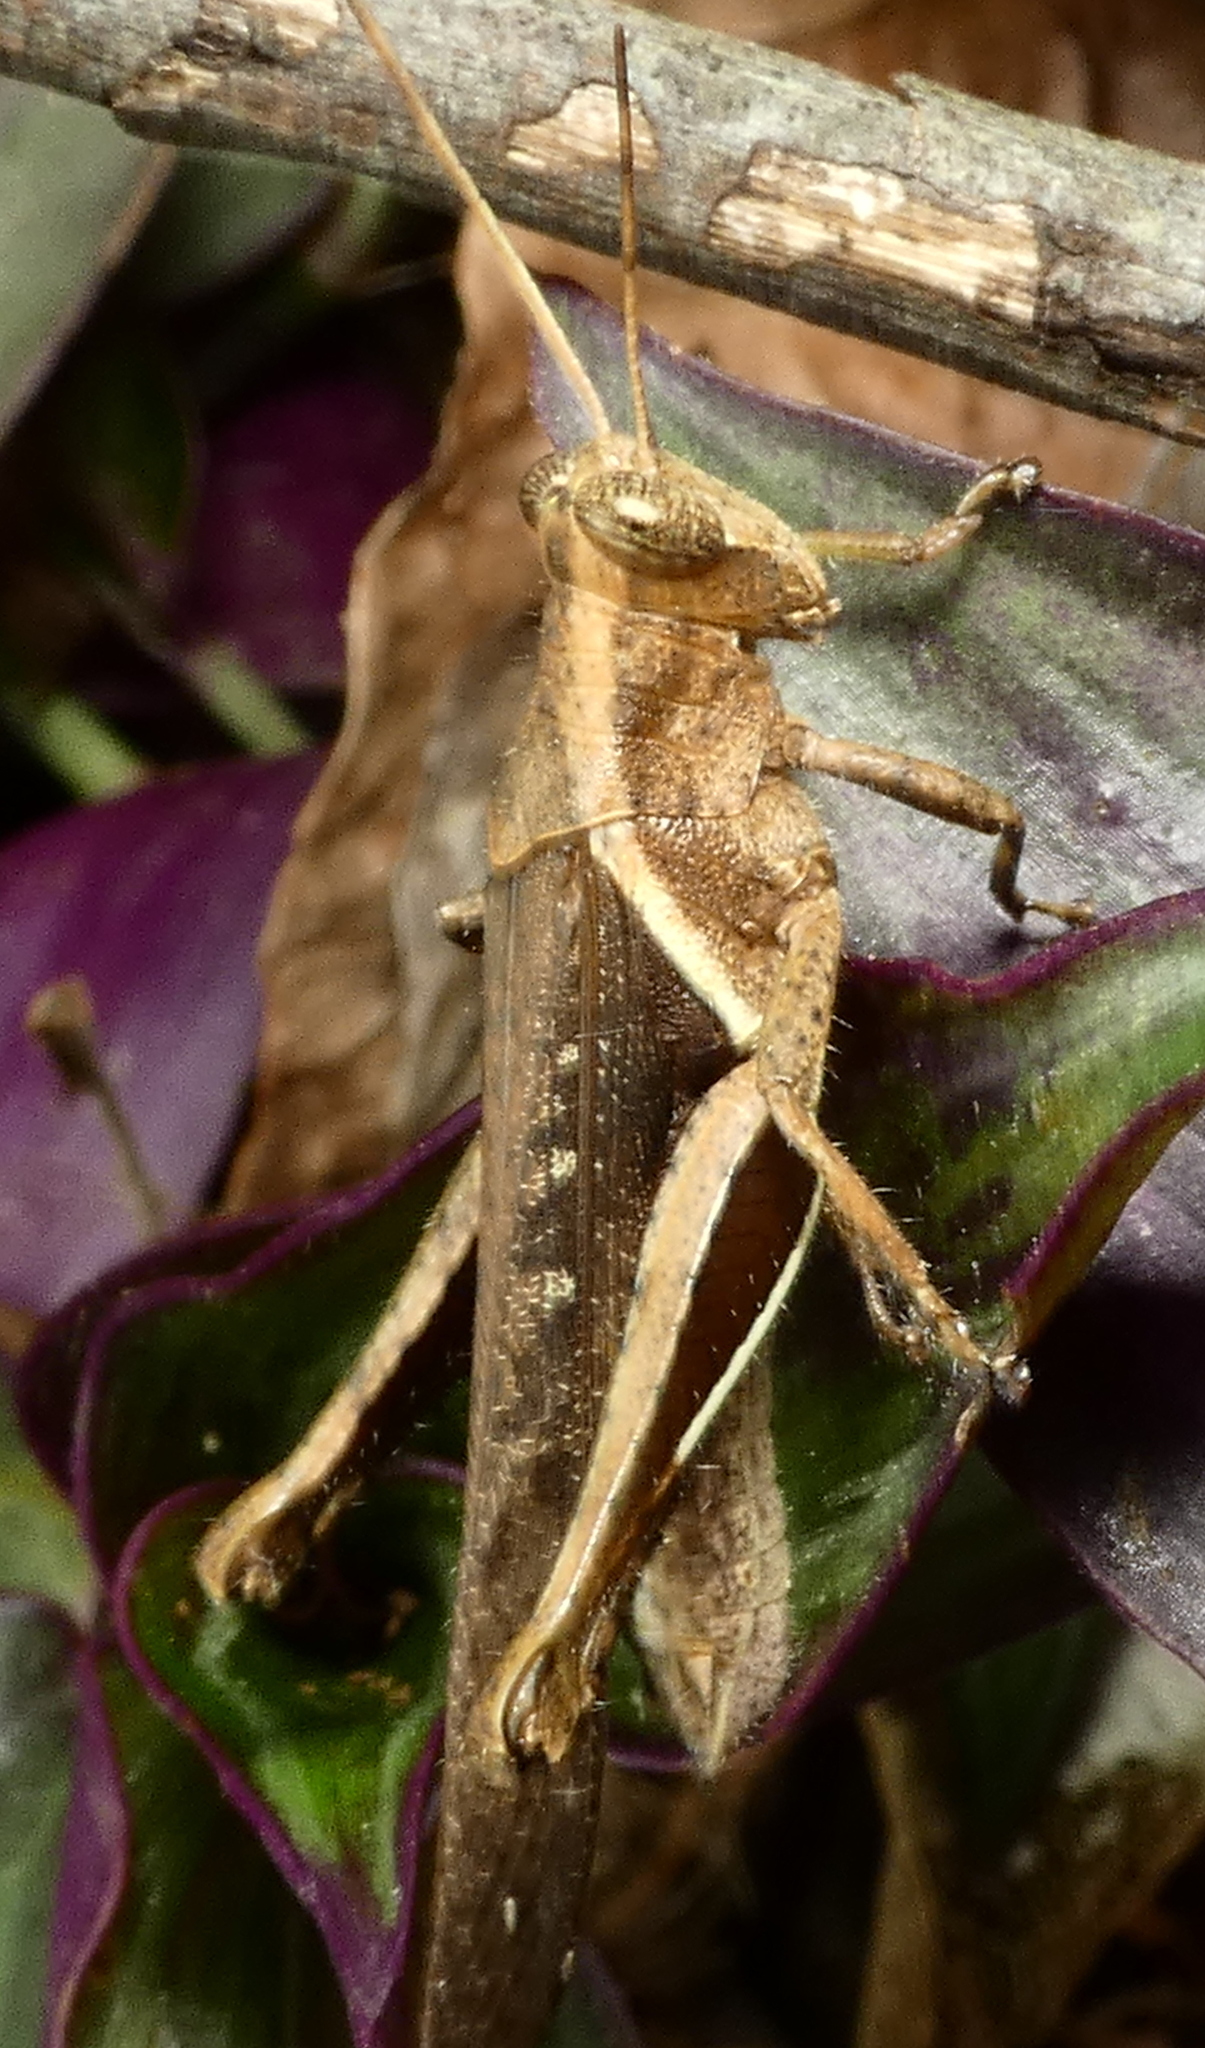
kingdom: Animalia
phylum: Arthropoda
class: Insecta
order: Orthoptera
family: Acrididae
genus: Abracris
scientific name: Abracris flavolineata
